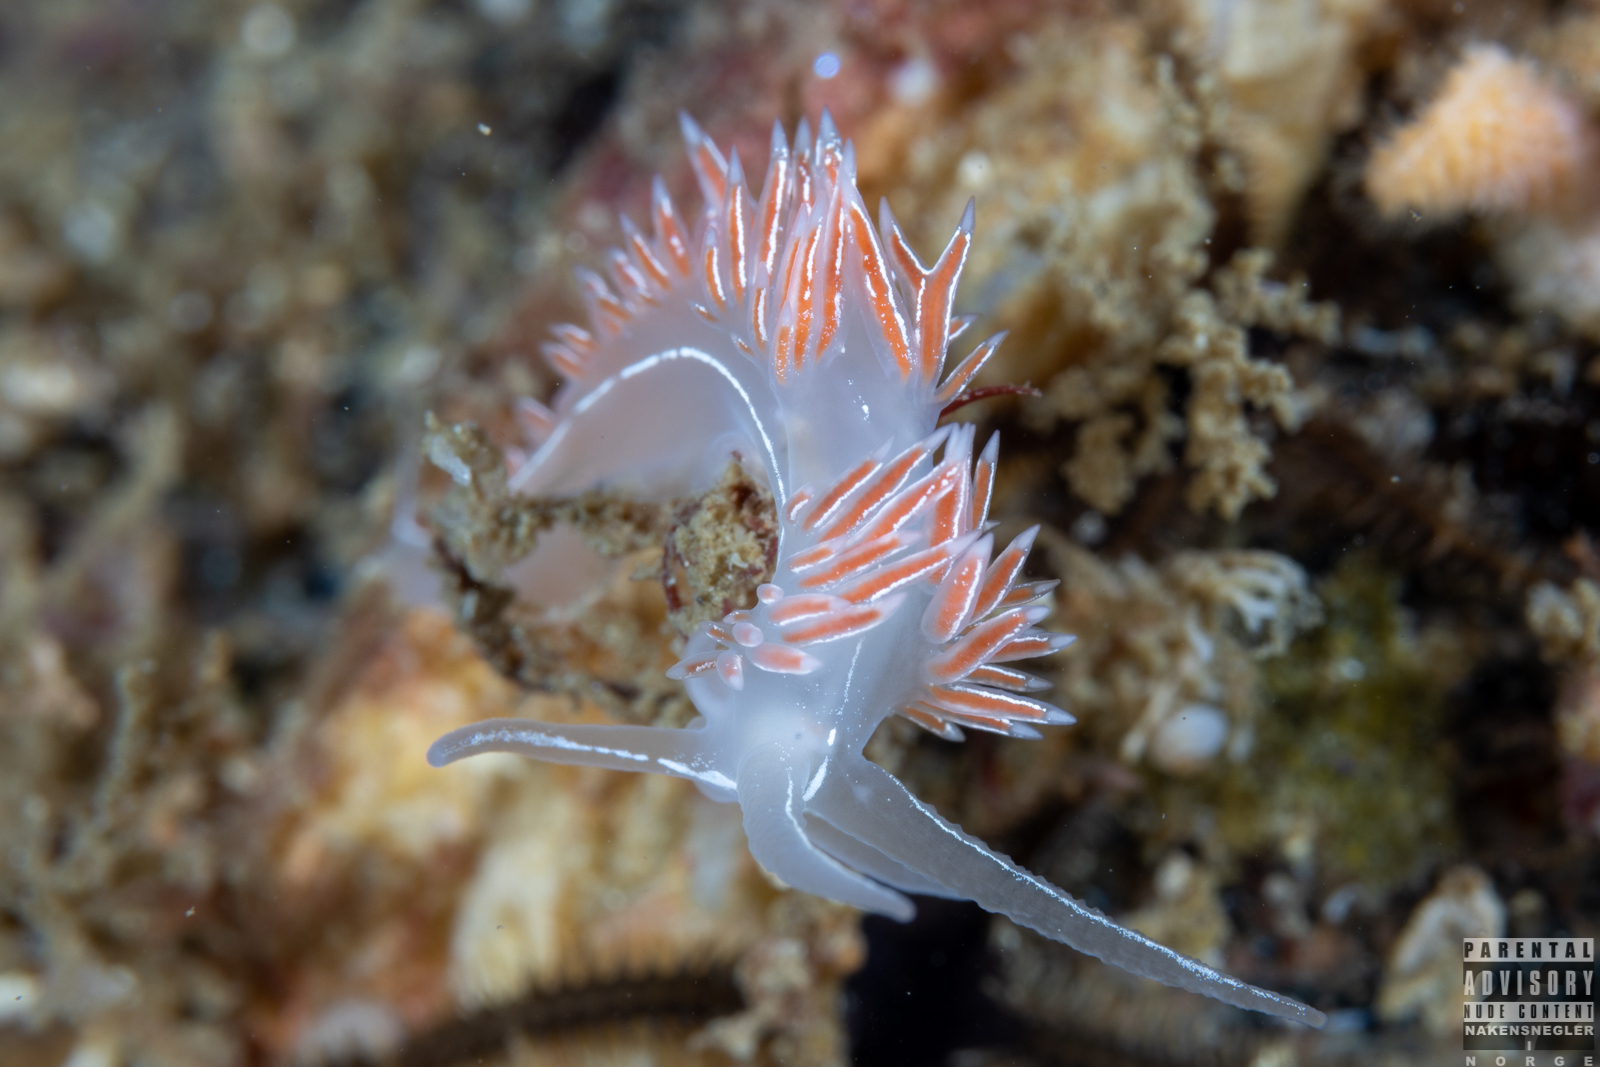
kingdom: Animalia
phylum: Mollusca
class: Gastropoda
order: Nudibranchia
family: Coryphellidae
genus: Coryphella
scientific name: Coryphella chriskaugei
